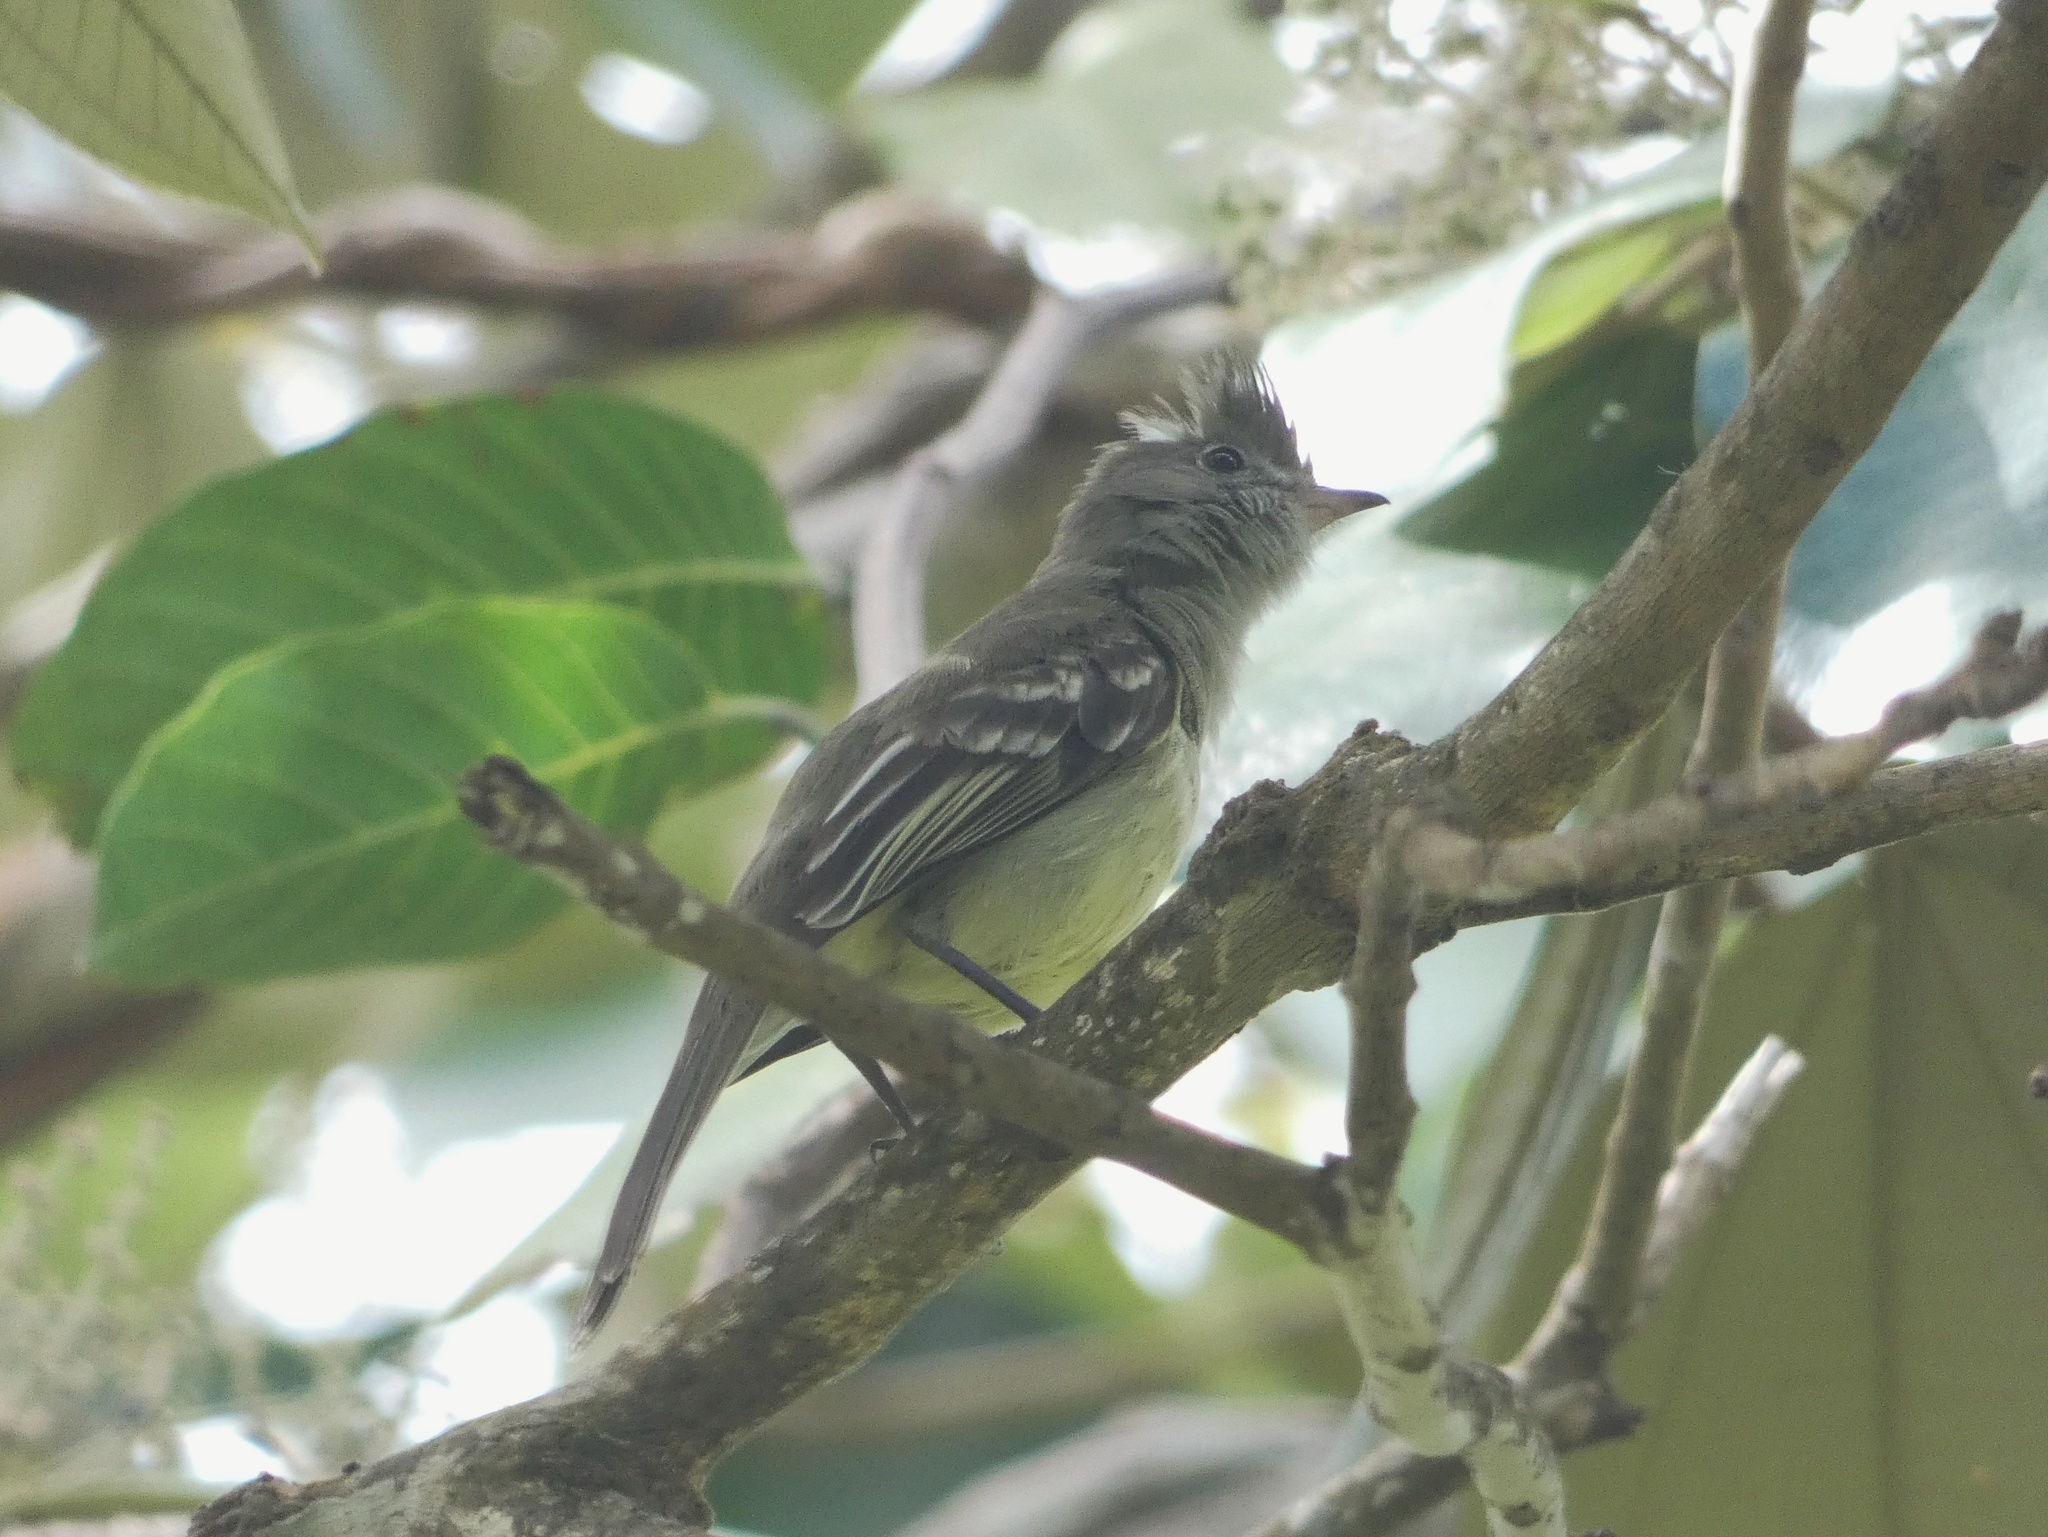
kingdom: Animalia
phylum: Chordata
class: Aves
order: Passeriformes
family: Tyrannidae
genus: Elaenia
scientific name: Elaenia flavogaster
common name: Yellow-bellied elaenia
